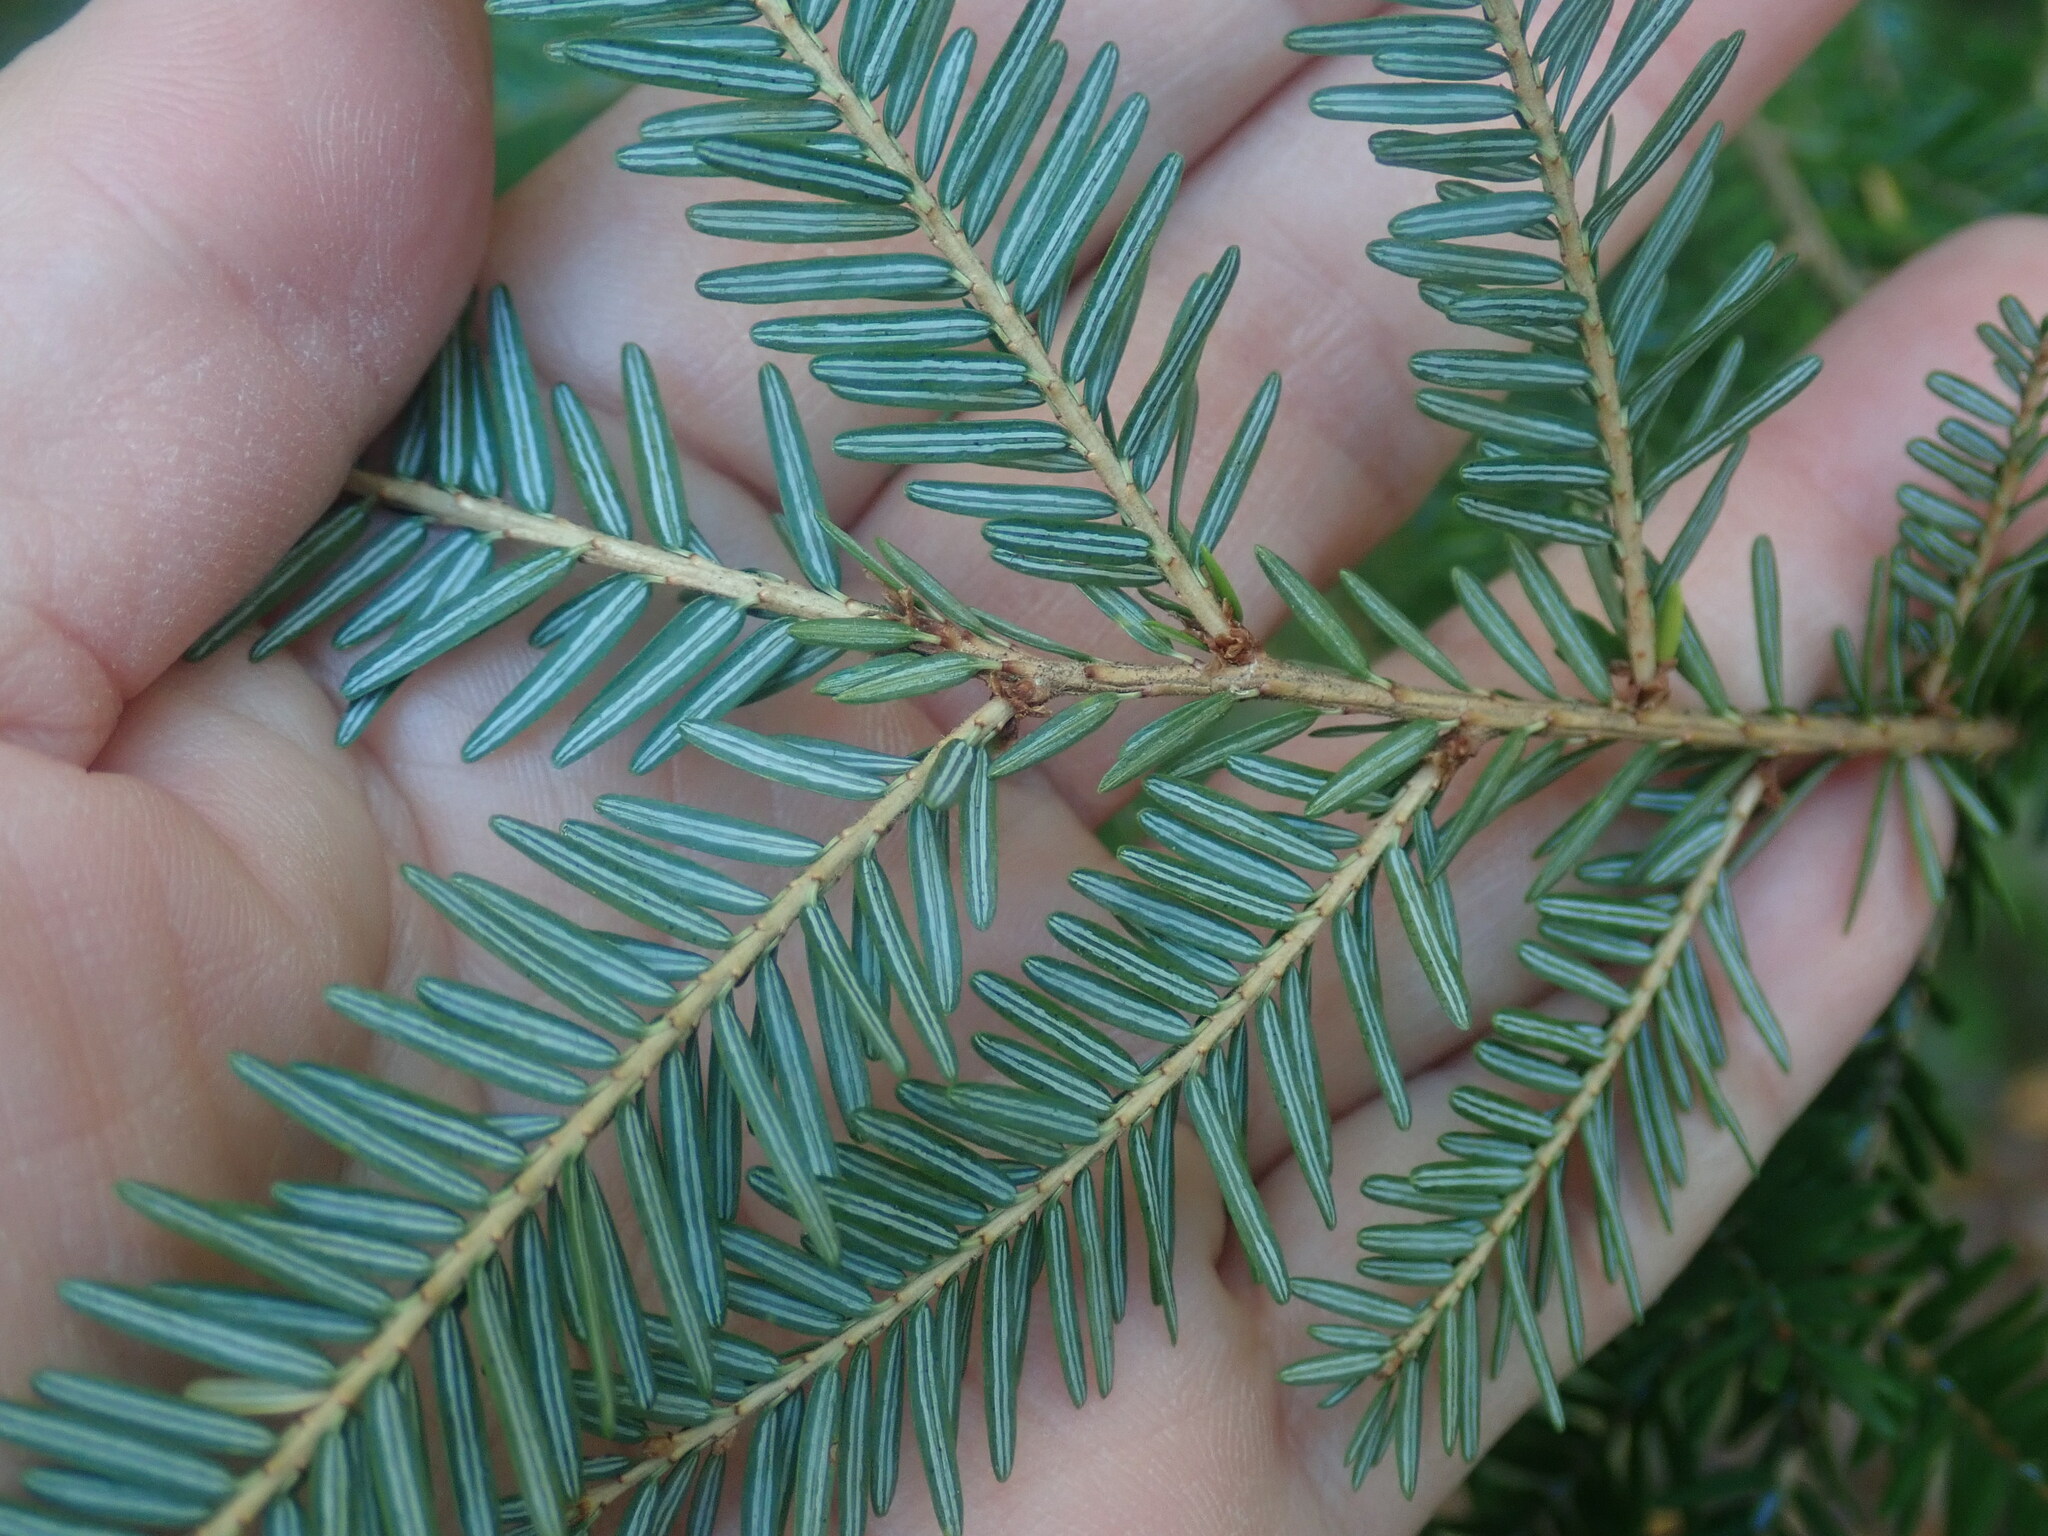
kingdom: Plantae
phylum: Tracheophyta
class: Pinopsida
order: Pinales
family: Pinaceae
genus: Tsuga
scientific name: Tsuga canadensis
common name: Eastern hemlock
